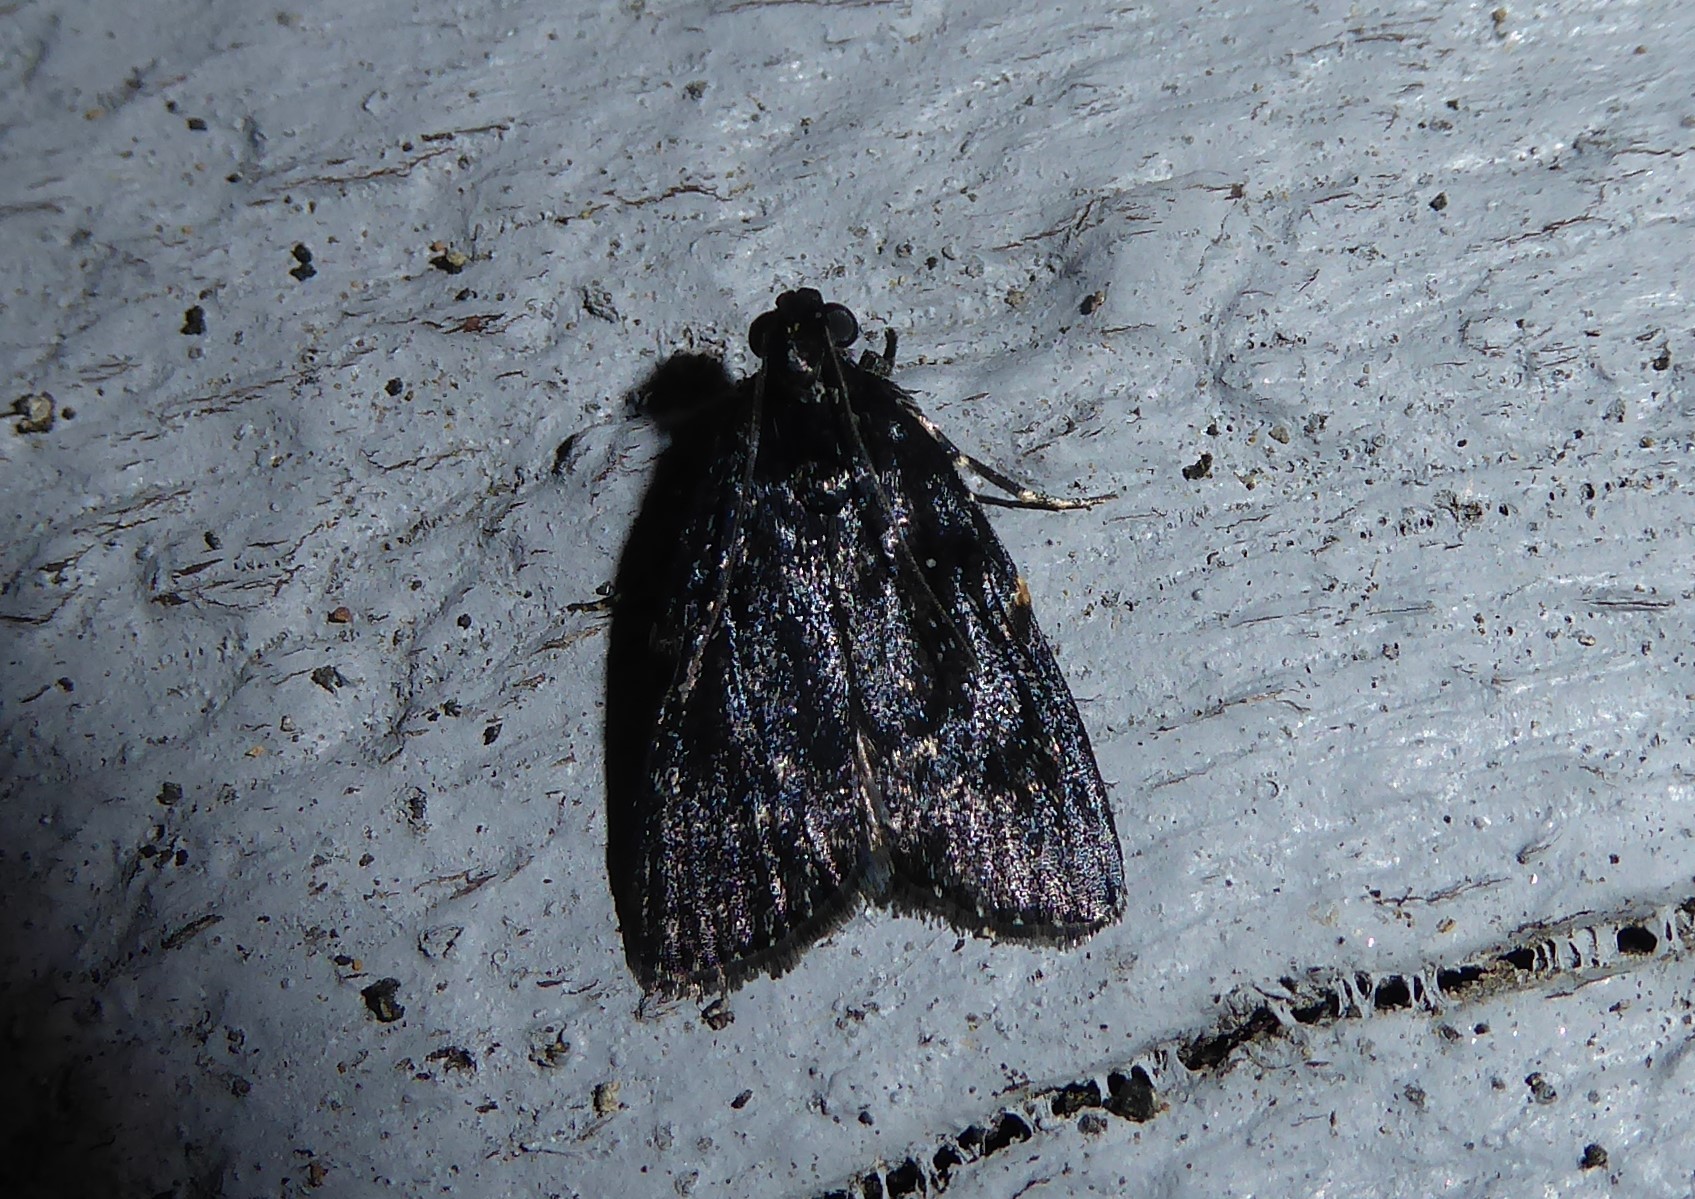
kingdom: Animalia
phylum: Arthropoda
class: Insecta
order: Lepidoptera
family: Pyralidae
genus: Stericta
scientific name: Stericta carbonalis
